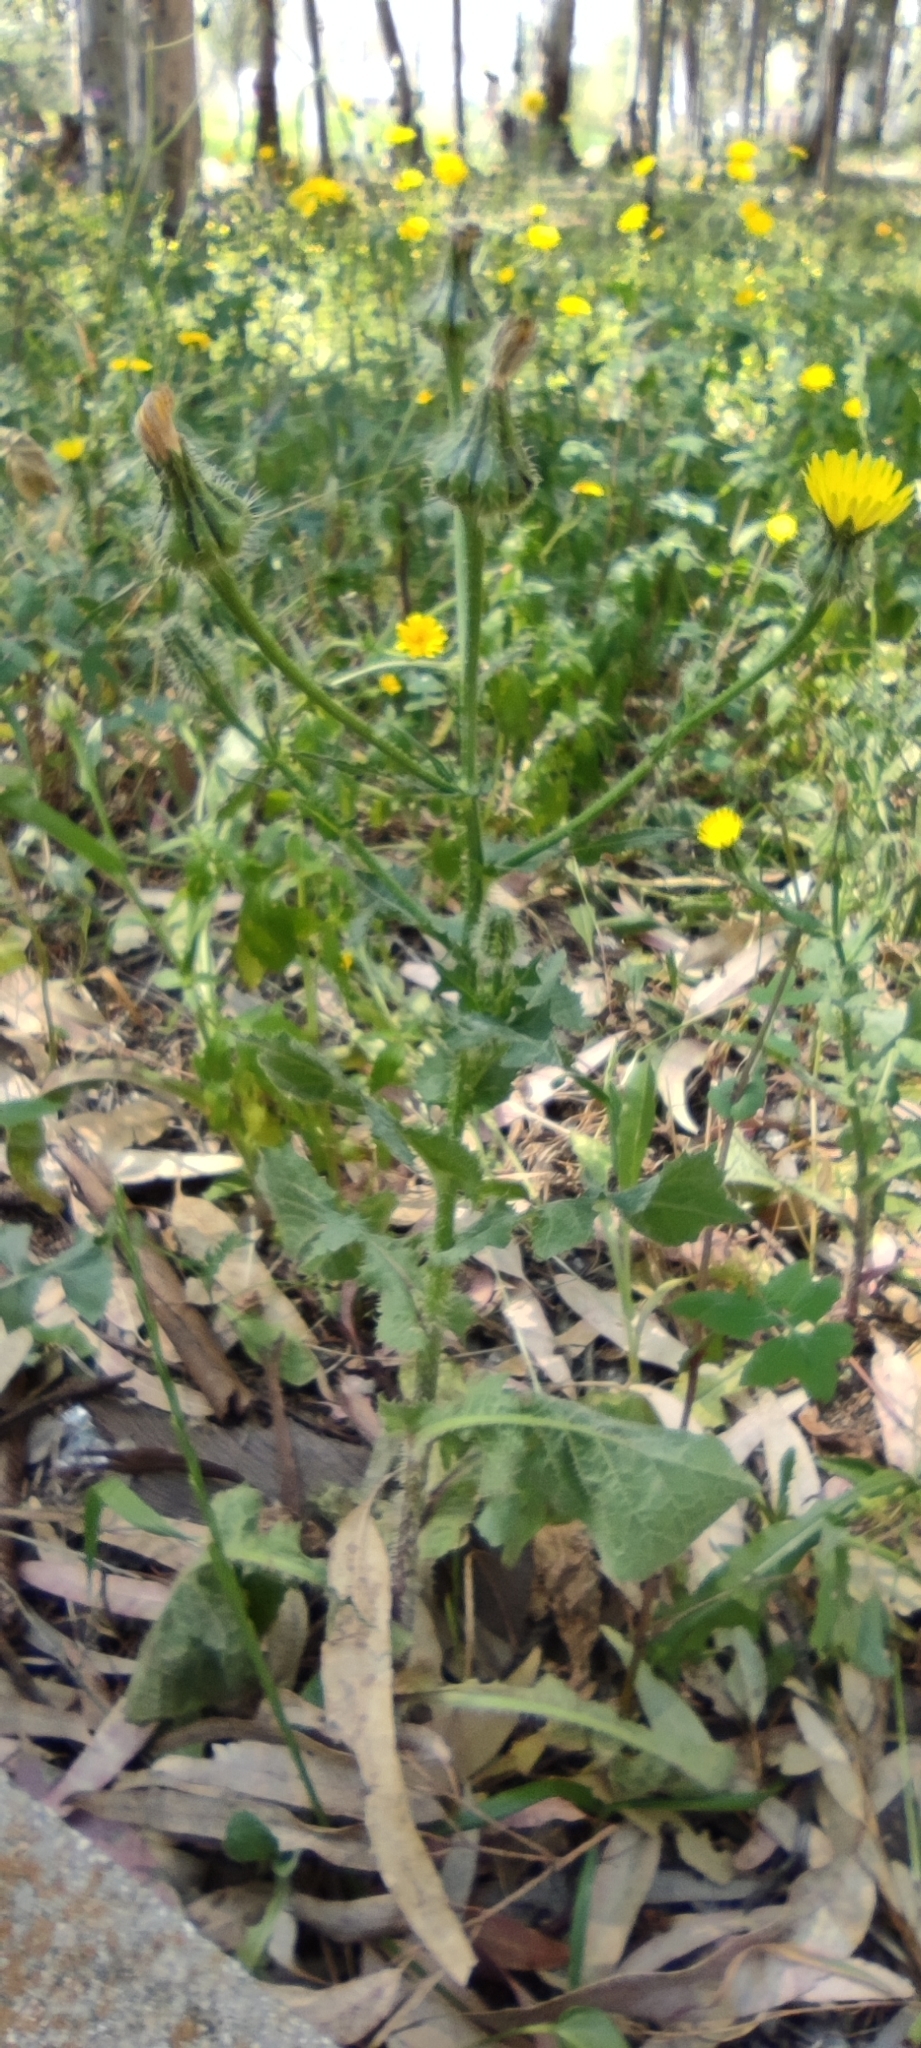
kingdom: Plantae
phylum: Tracheophyta
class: Magnoliopsida
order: Asterales
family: Asteraceae
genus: Urospermum
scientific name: Urospermum picroides
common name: False hawkbit
